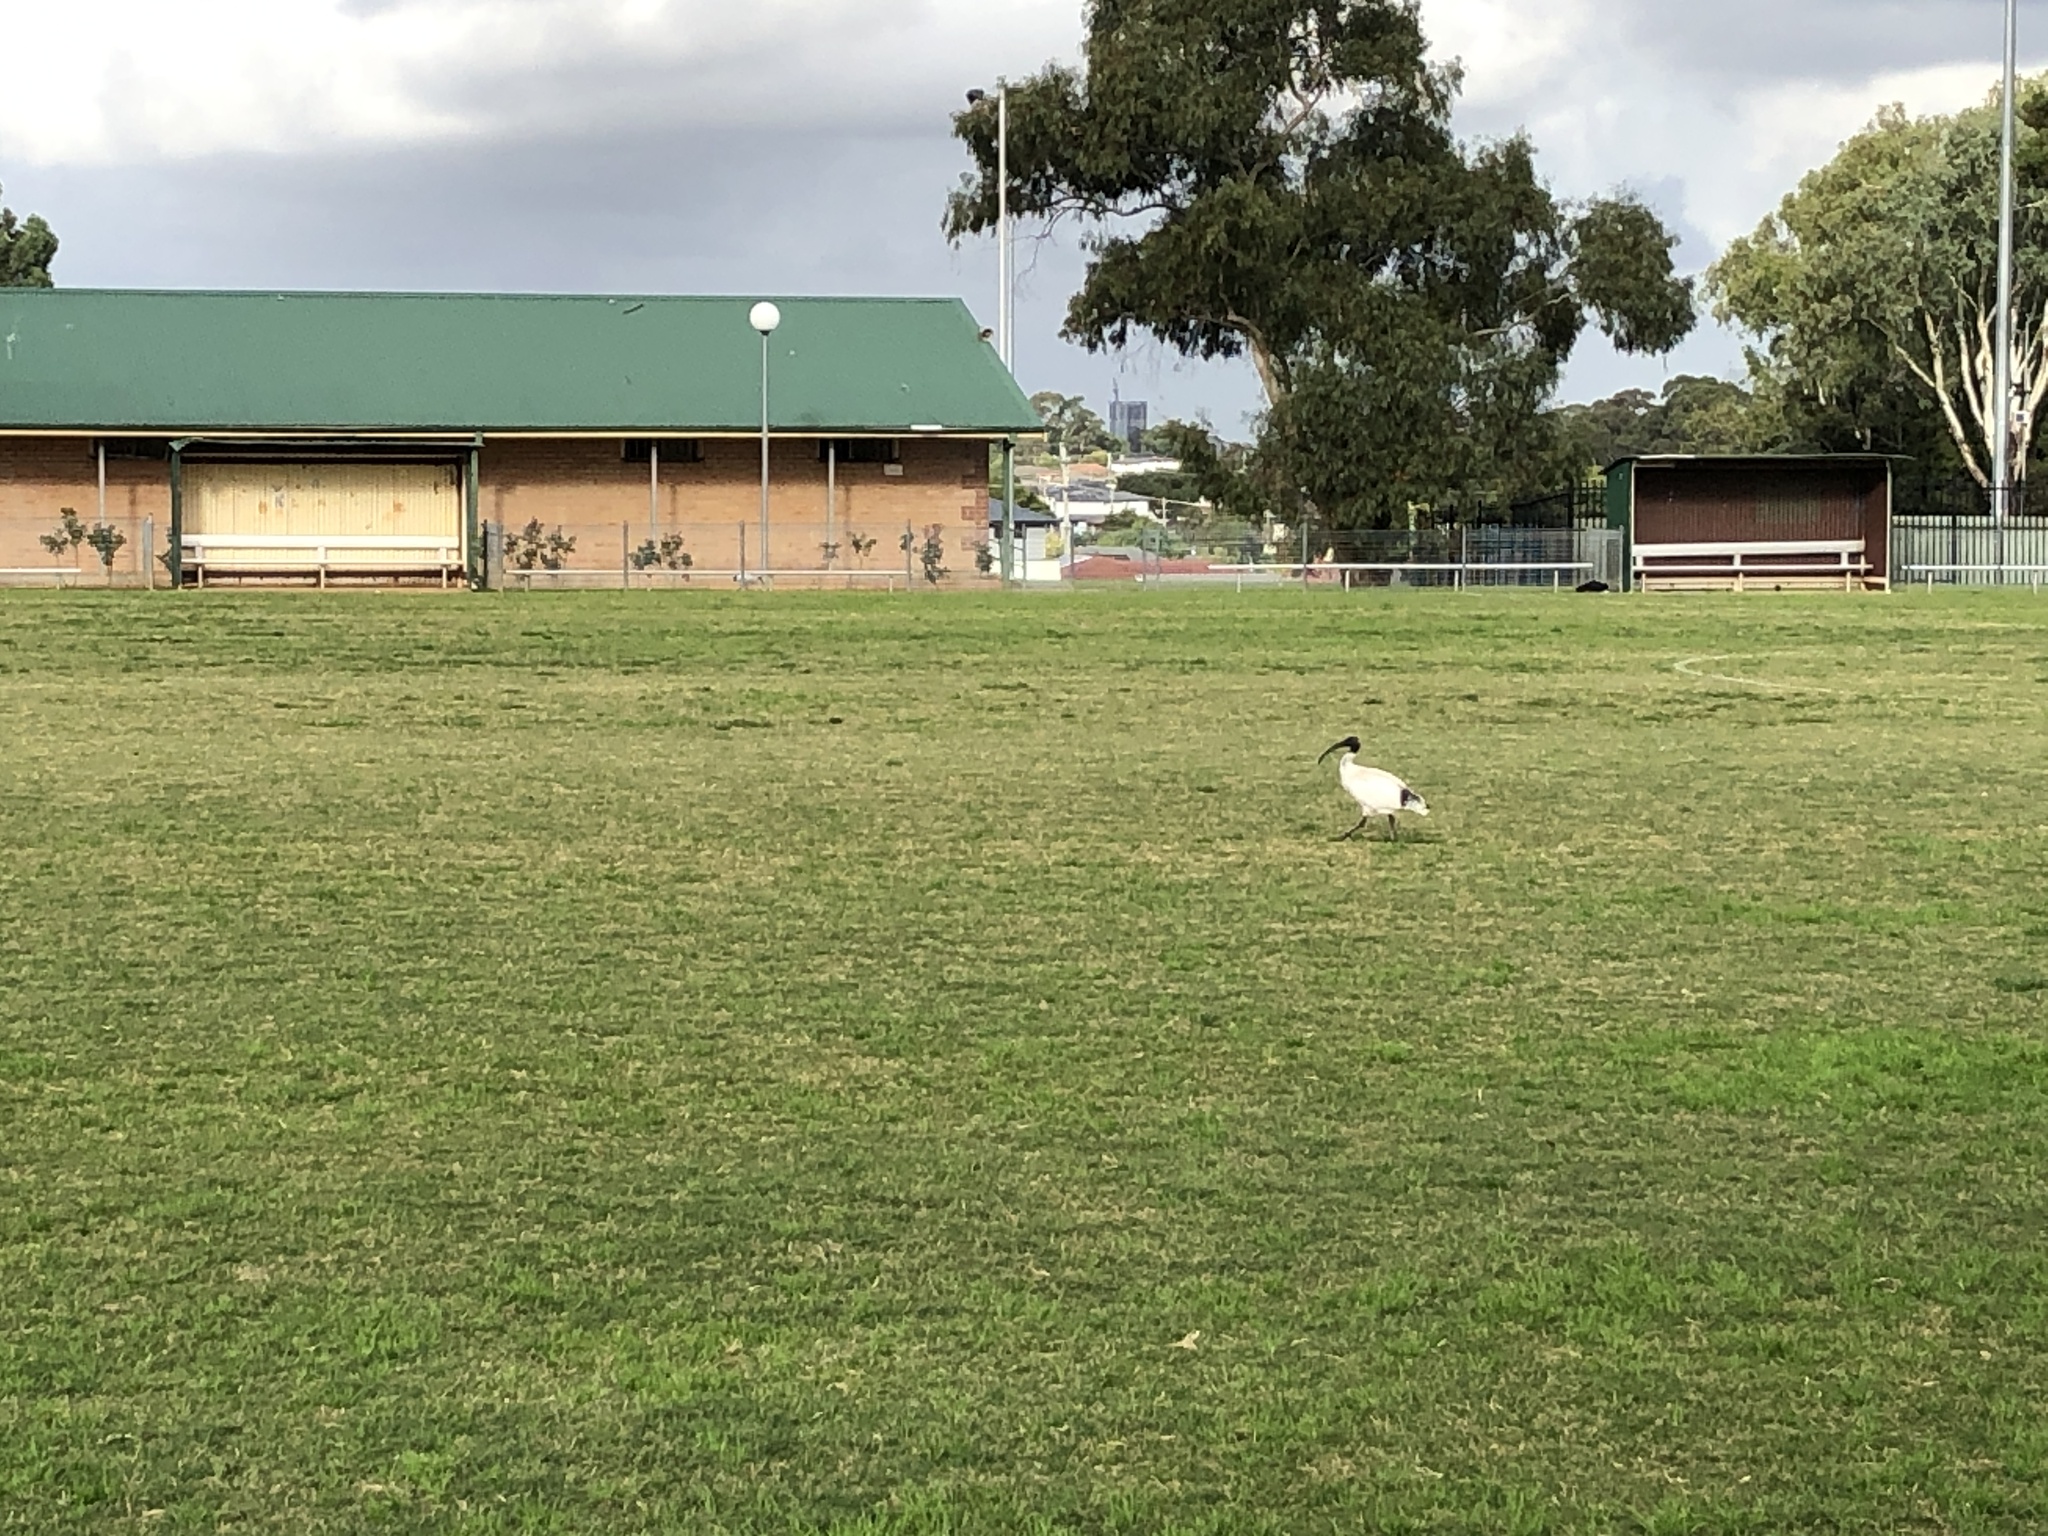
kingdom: Animalia
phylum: Chordata
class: Aves
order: Pelecaniformes
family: Threskiornithidae
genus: Threskiornis
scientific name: Threskiornis molucca
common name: Australian white ibis
